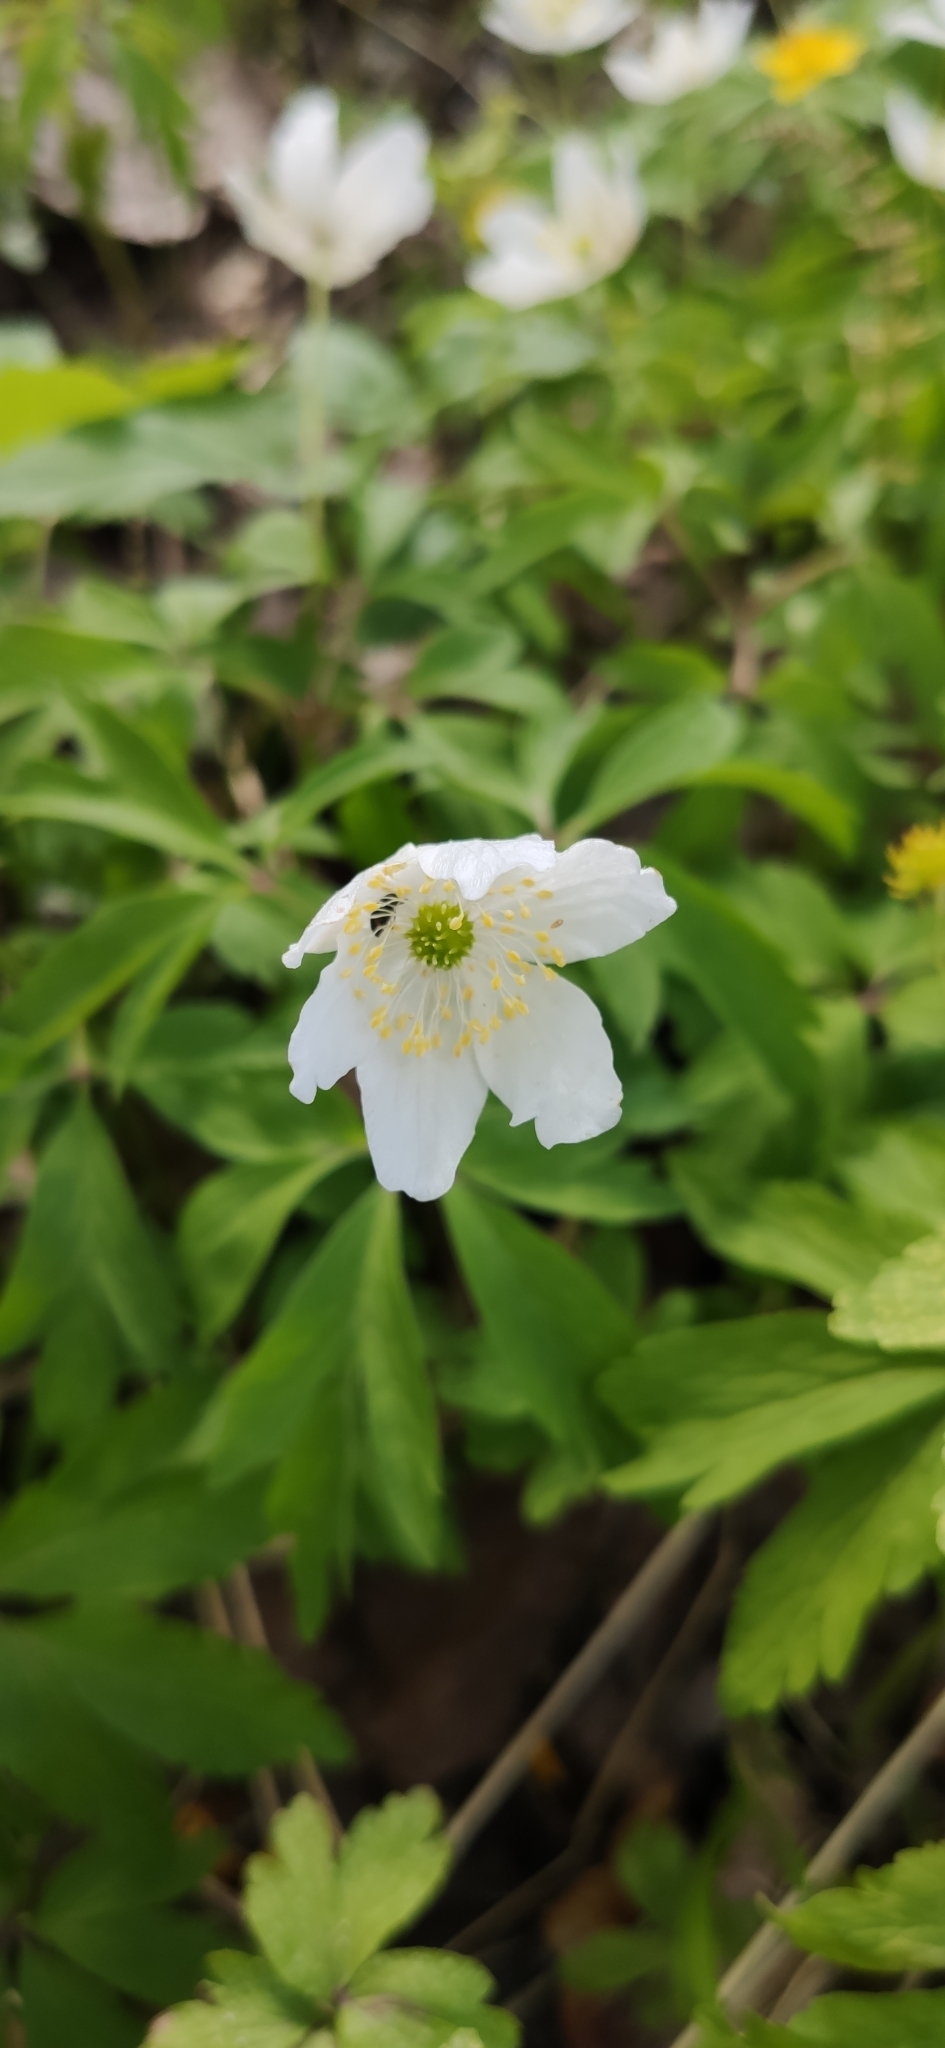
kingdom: Plantae
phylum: Tracheophyta
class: Magnoliopsida
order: Ranunculales
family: Ranunculaceae
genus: Anemone
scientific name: Anemone nemorosa
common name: Wood anemone
